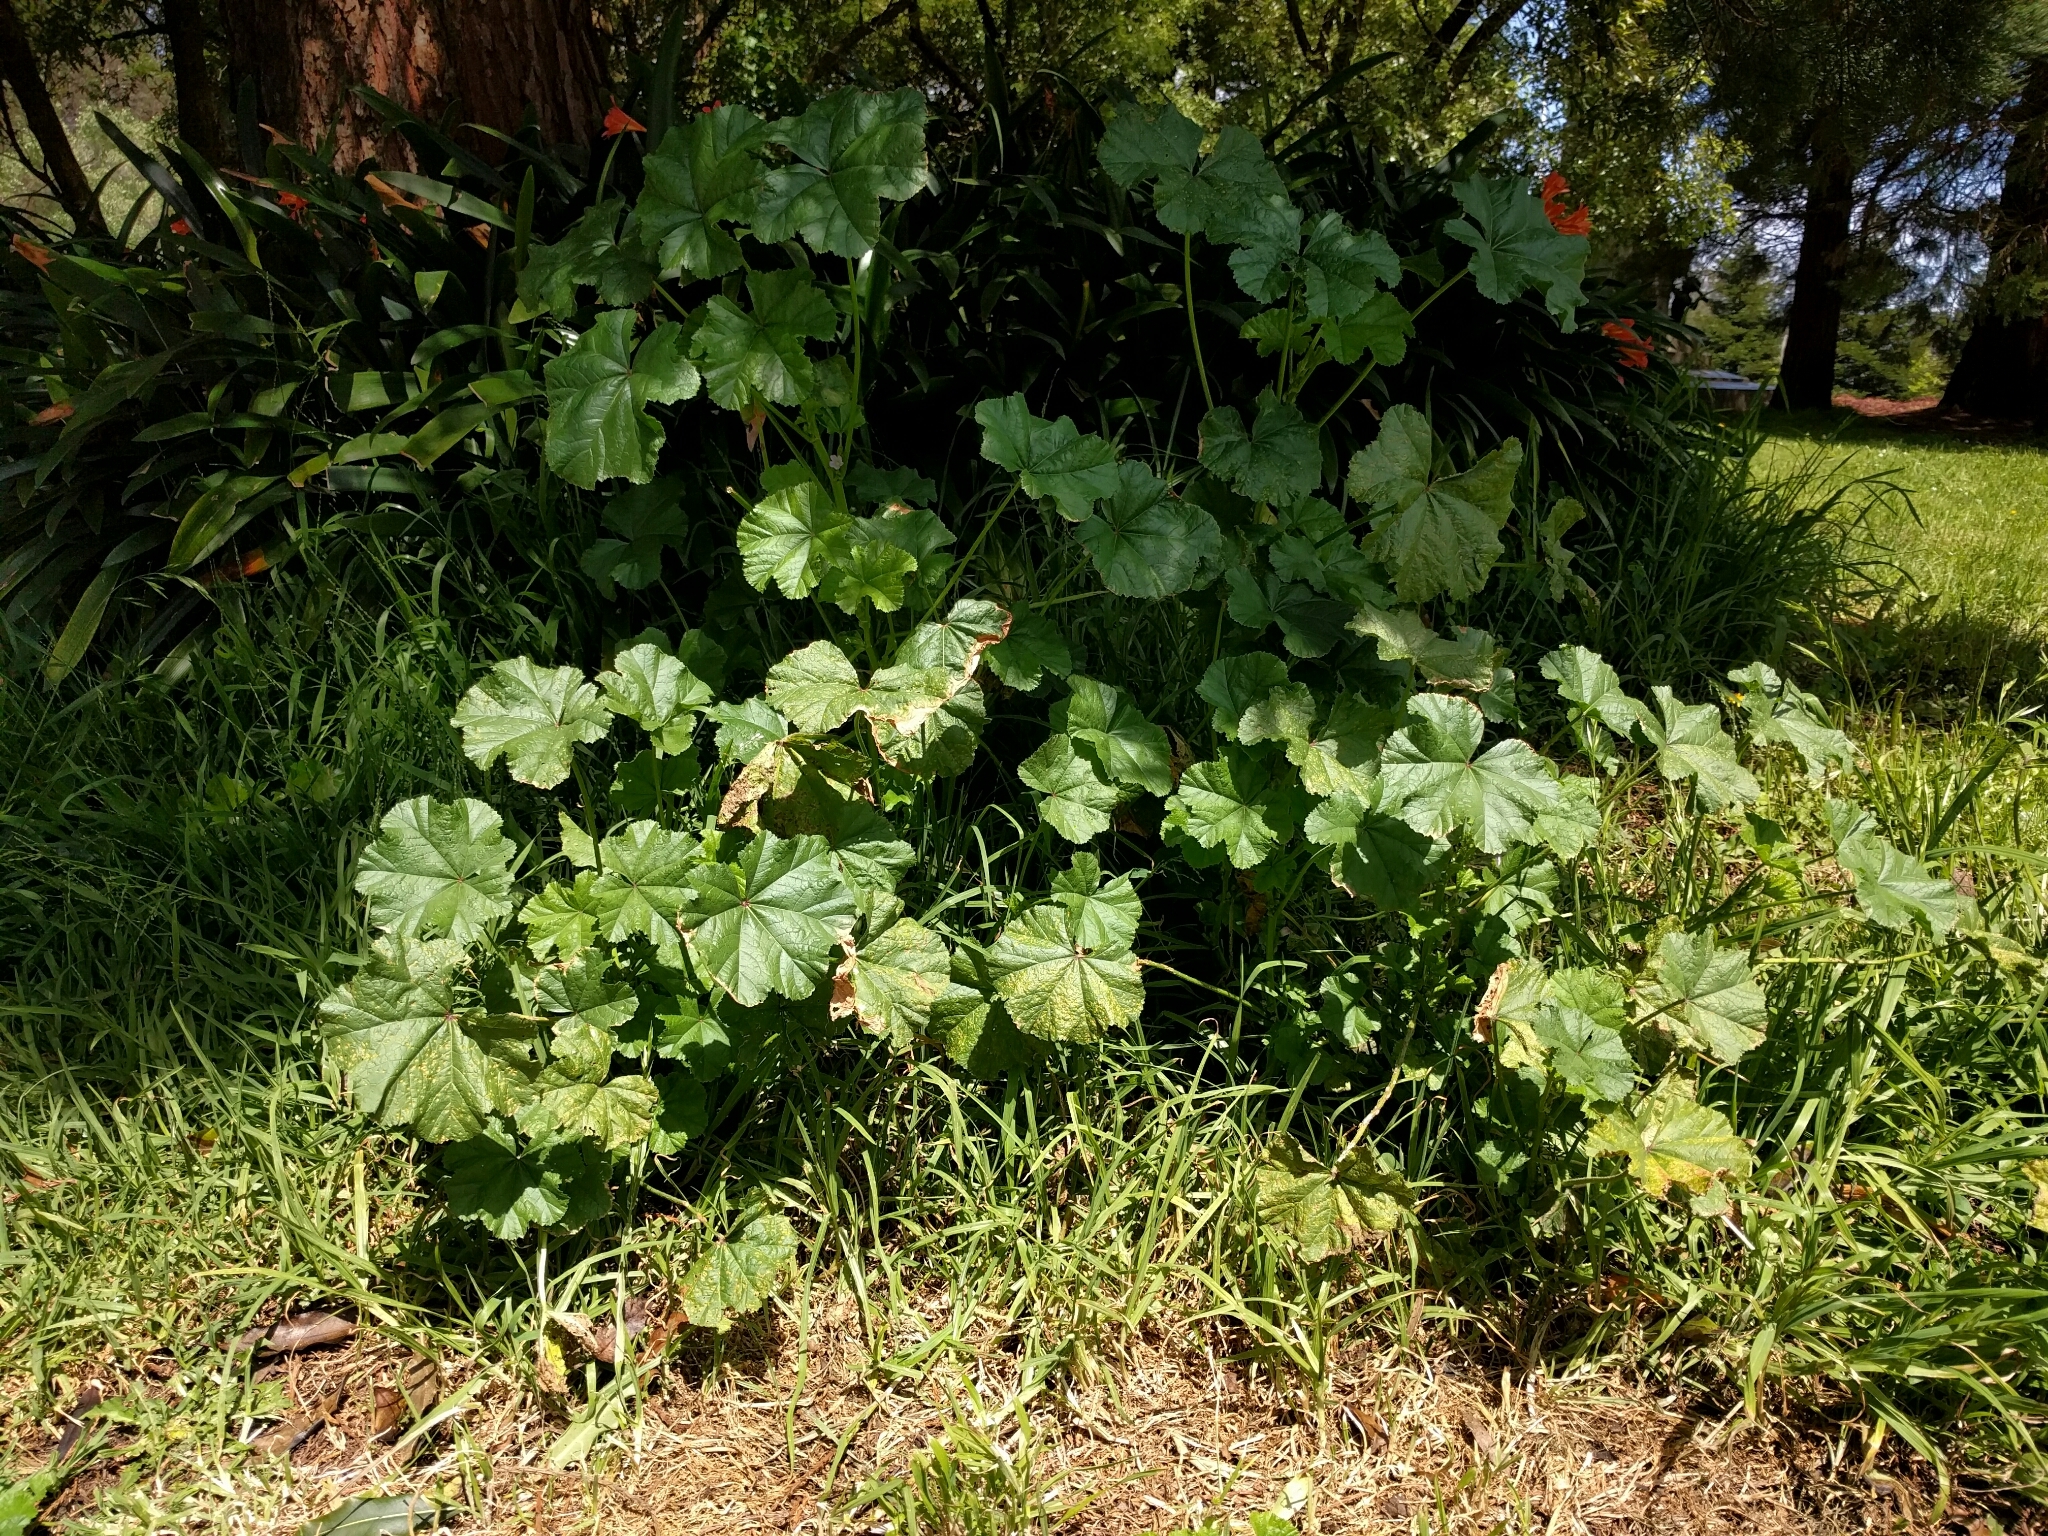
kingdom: Plantae
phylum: Tracheophyta
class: Magnoliopsida
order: Malvales
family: Malvaceae
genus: Malva
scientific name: Malva nicaeensis
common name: French mallow
